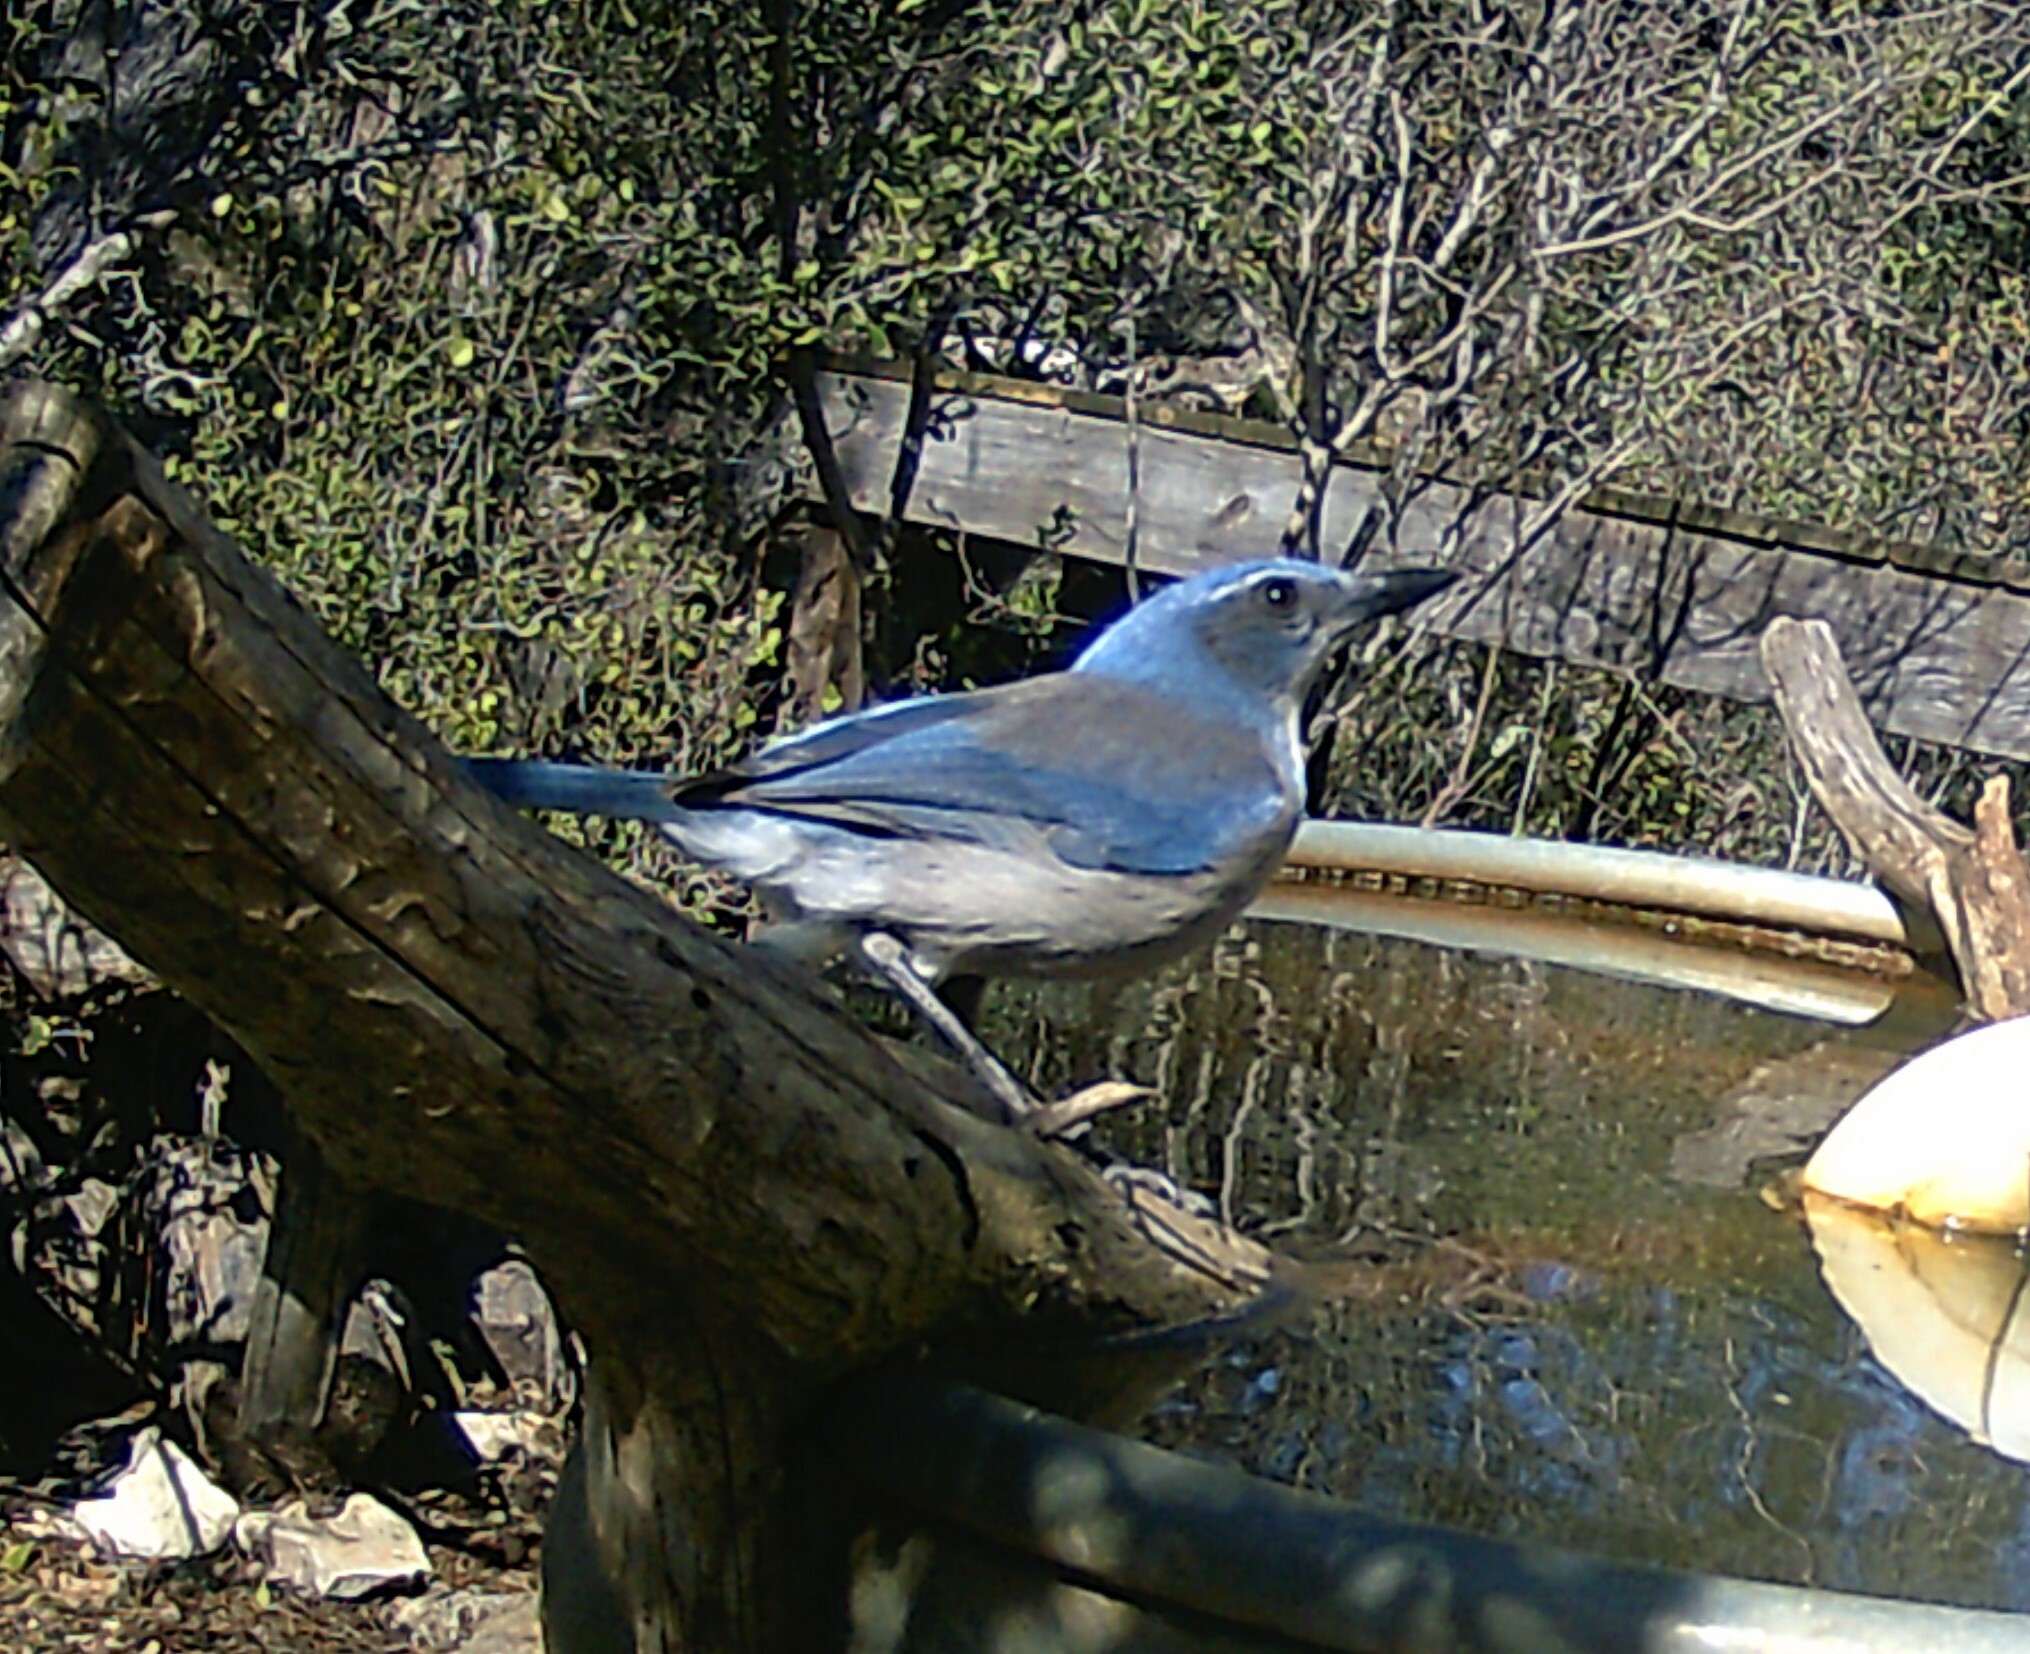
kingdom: Animalia
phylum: Chordata
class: Aves
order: Passeriformes
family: Corvidae
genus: Aphelocoma
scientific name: Aphelocoma woodhouseii
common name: Woodhouse's scrub-jay
